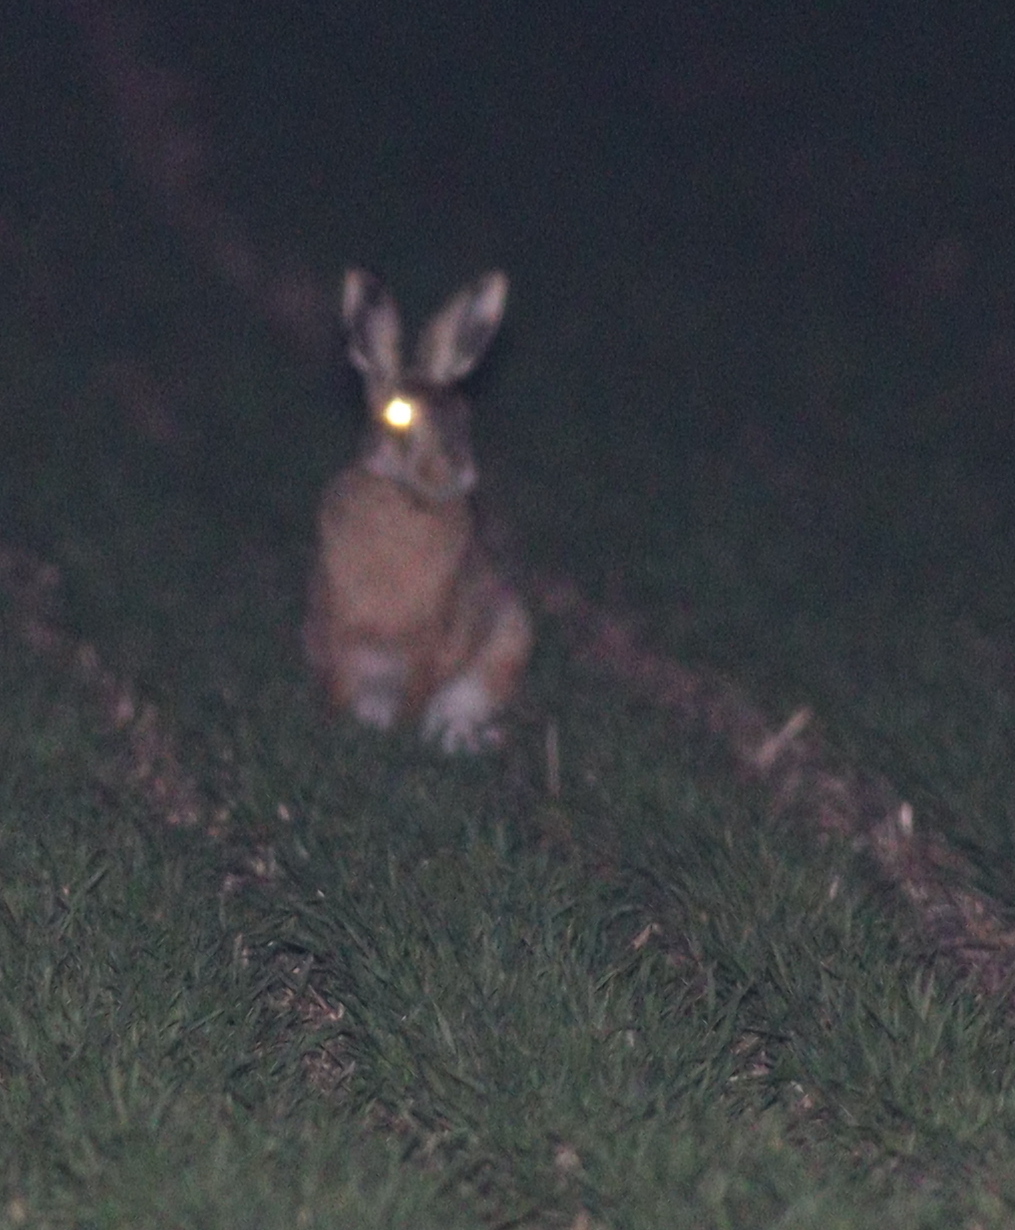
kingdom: Animalia
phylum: Chordata
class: Mammalia
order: Lagomorpha
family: Leporidae
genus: Lepus
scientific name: Lepus europaeus
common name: European hare
